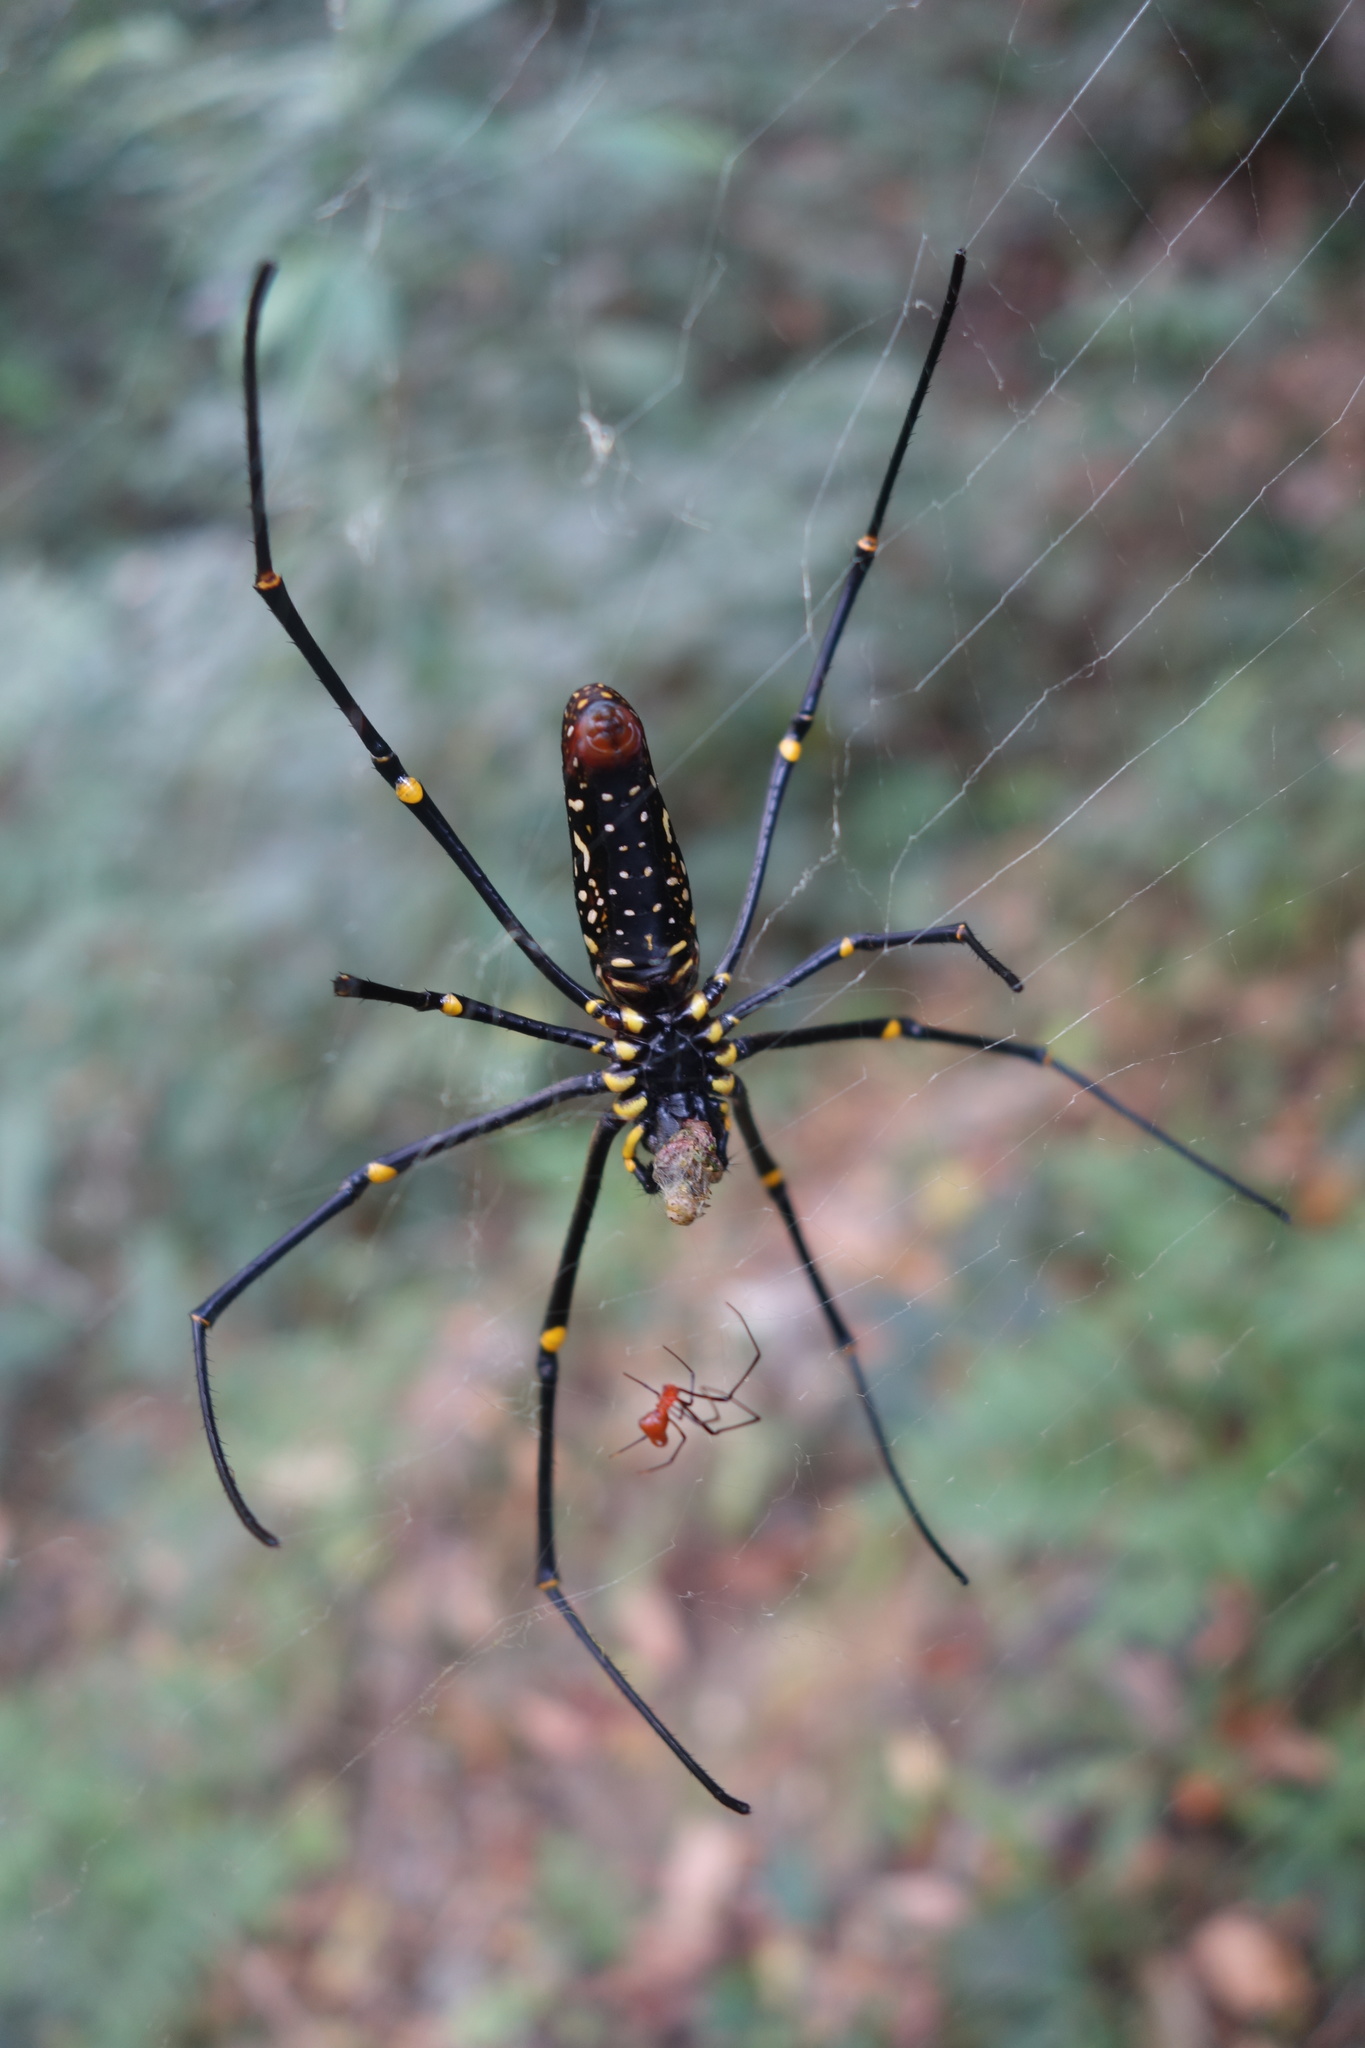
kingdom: Animalia
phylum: Arthropoda
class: Arachnida
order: Araneae
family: Araneidae
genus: Nephila
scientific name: Nephila pilipes
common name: Giant golden orb weaver
